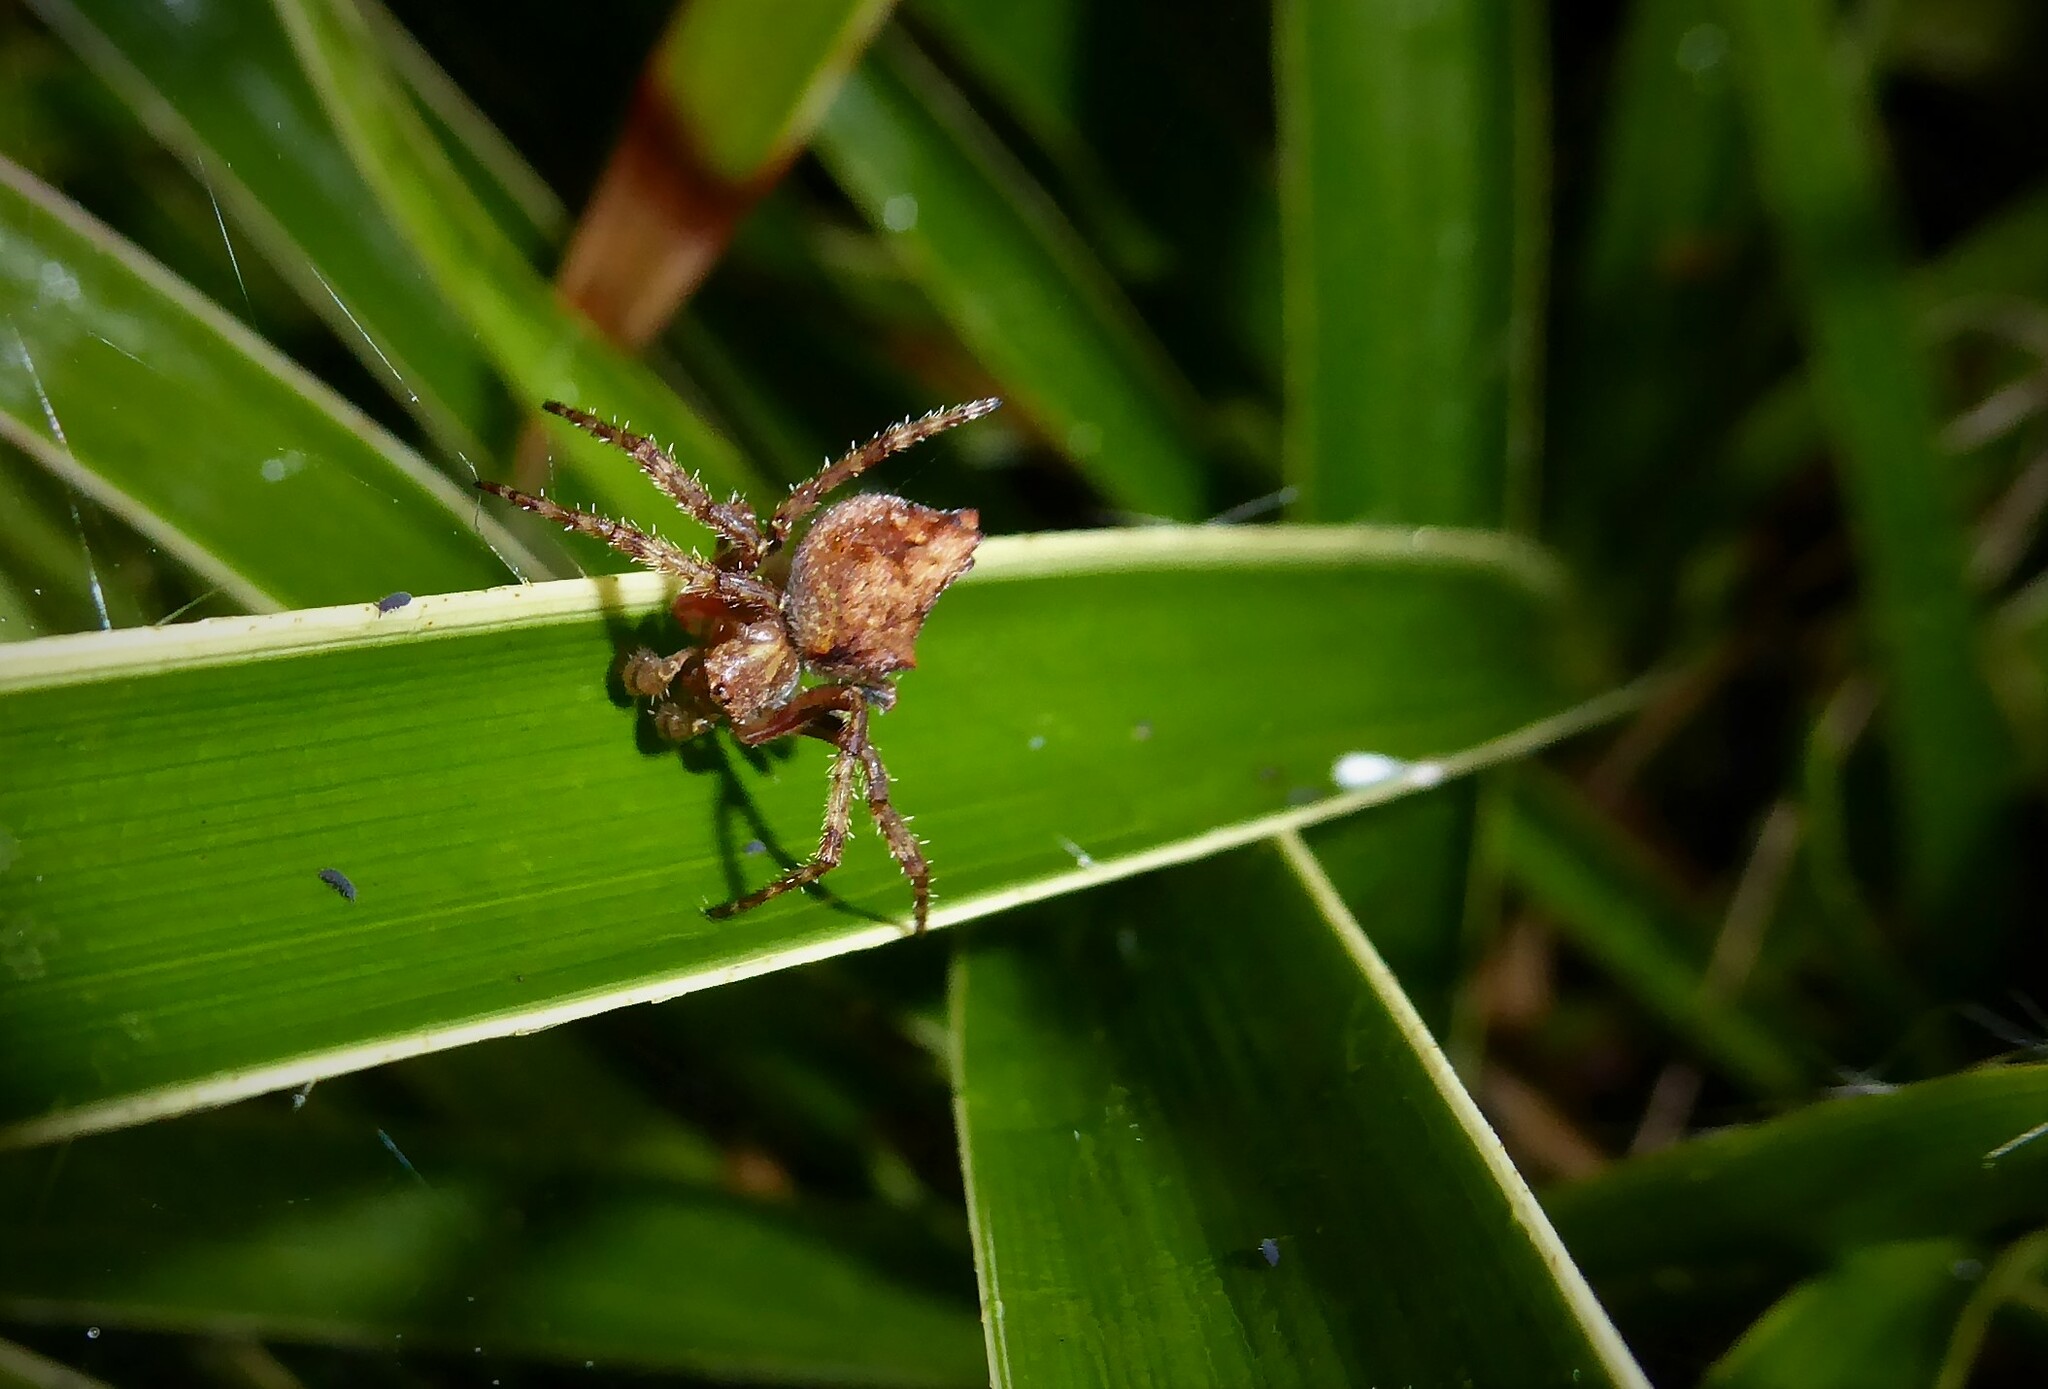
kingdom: Animalia
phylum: Arthropoda
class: Arachnida
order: Araneae
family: Araneidae
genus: Eriophora
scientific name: Eriophora pustulosa
